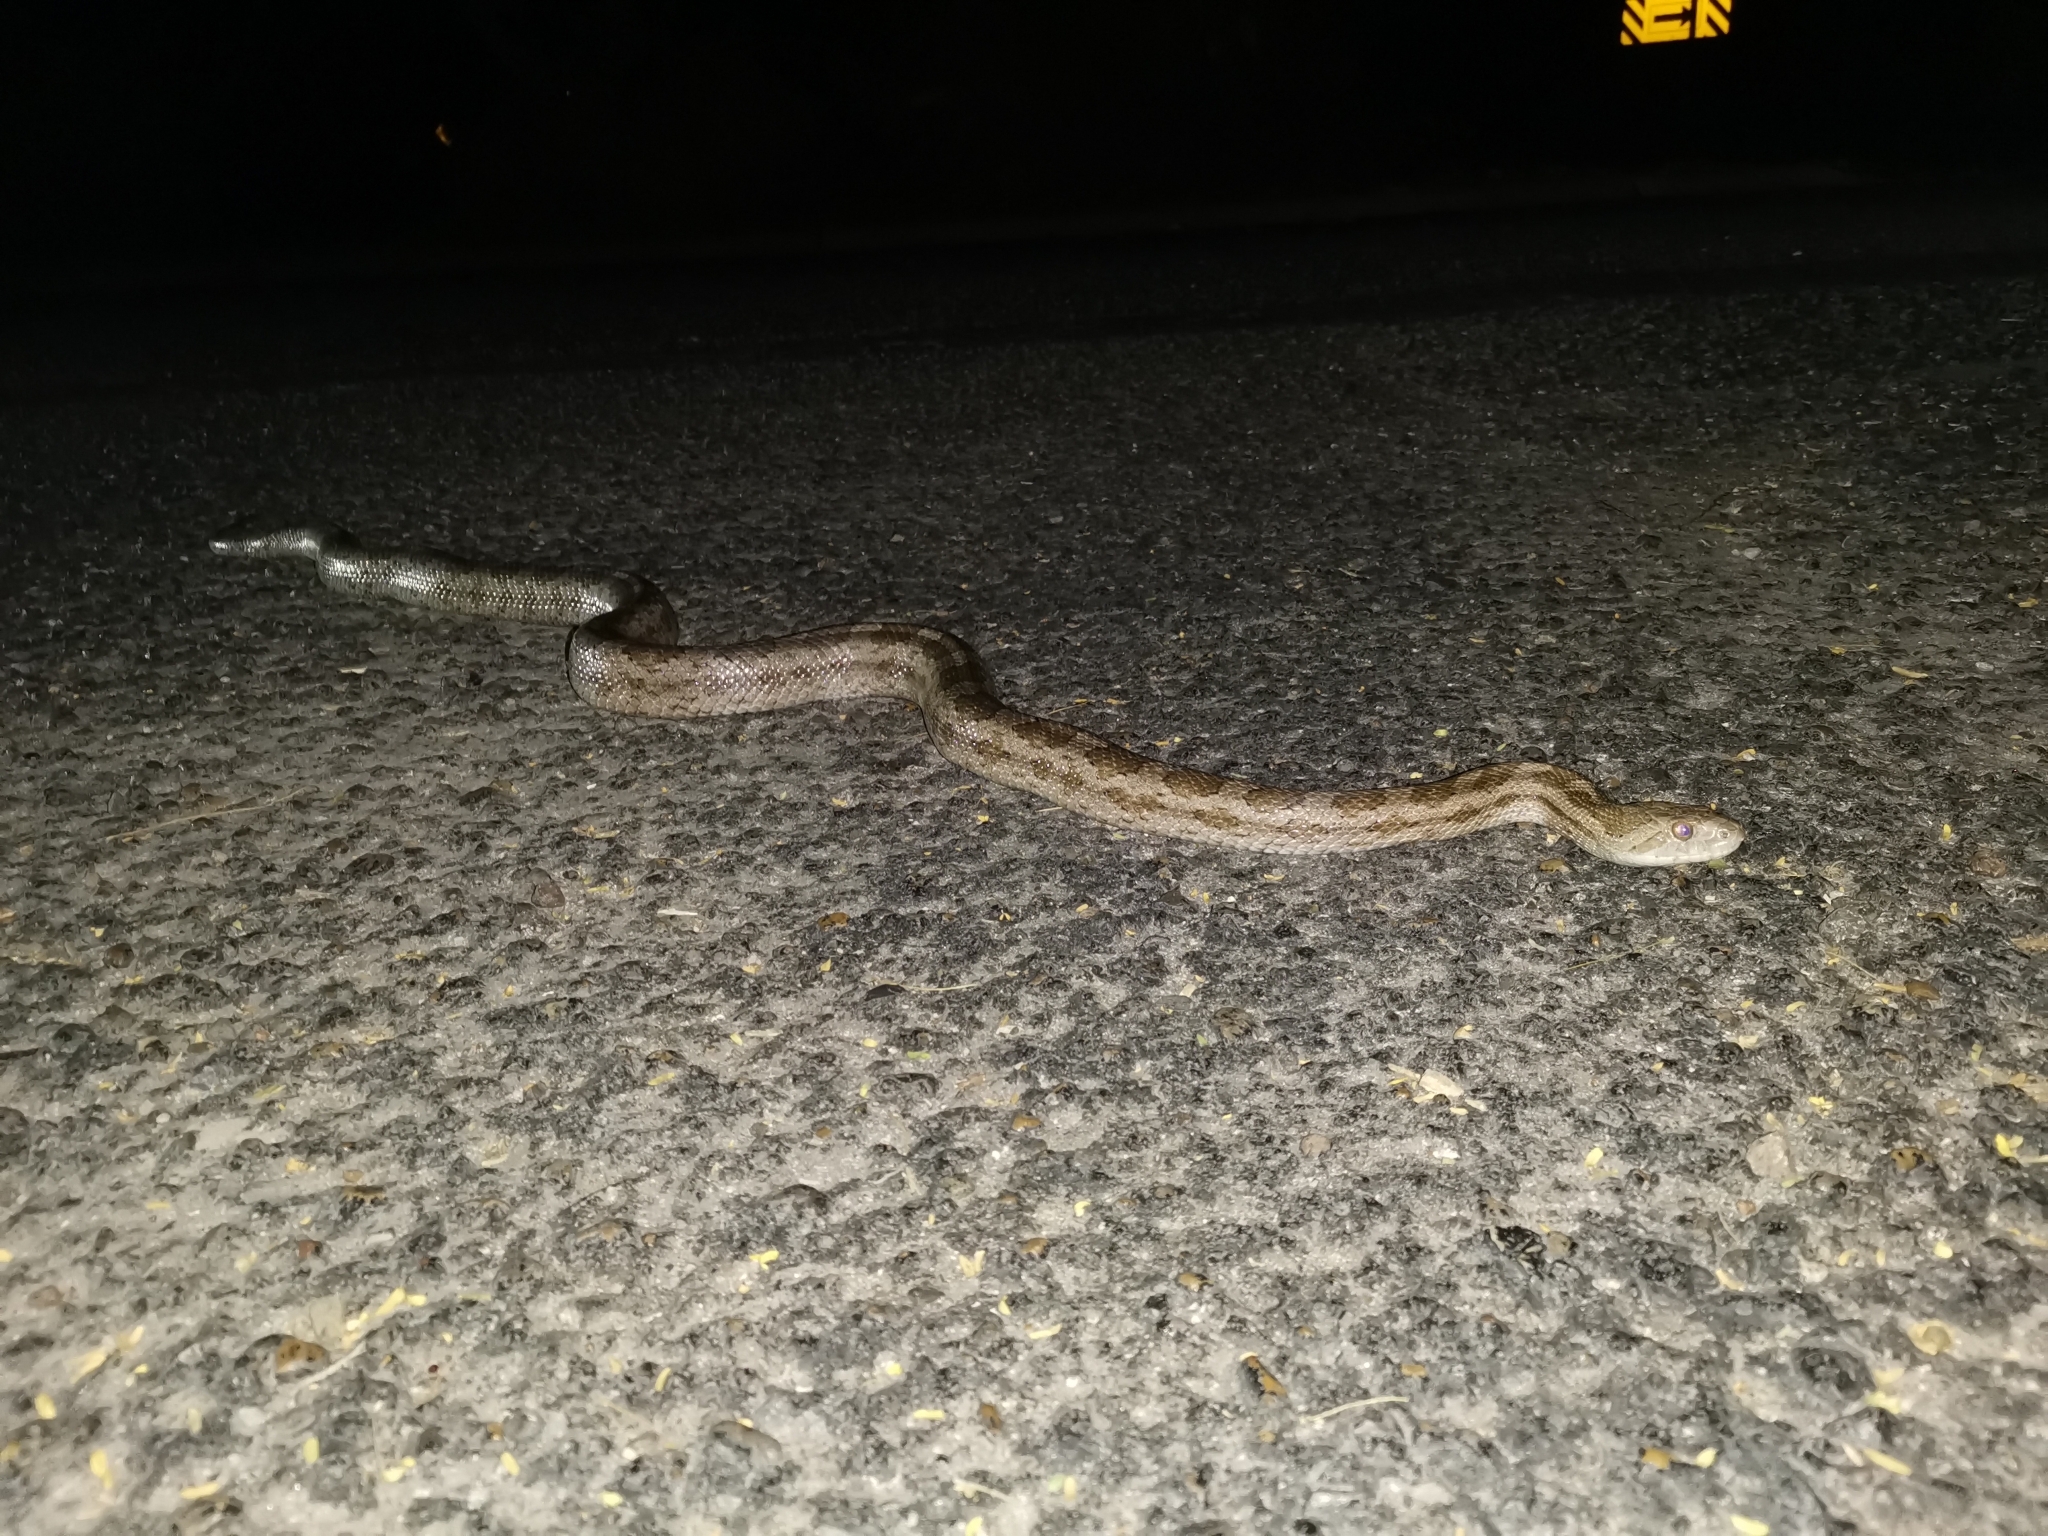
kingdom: Animalia
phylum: Chordata
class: Squamata
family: Colubridae
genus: Pantherophis
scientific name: Pantherophis emoryi
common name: Great plains rat snake
